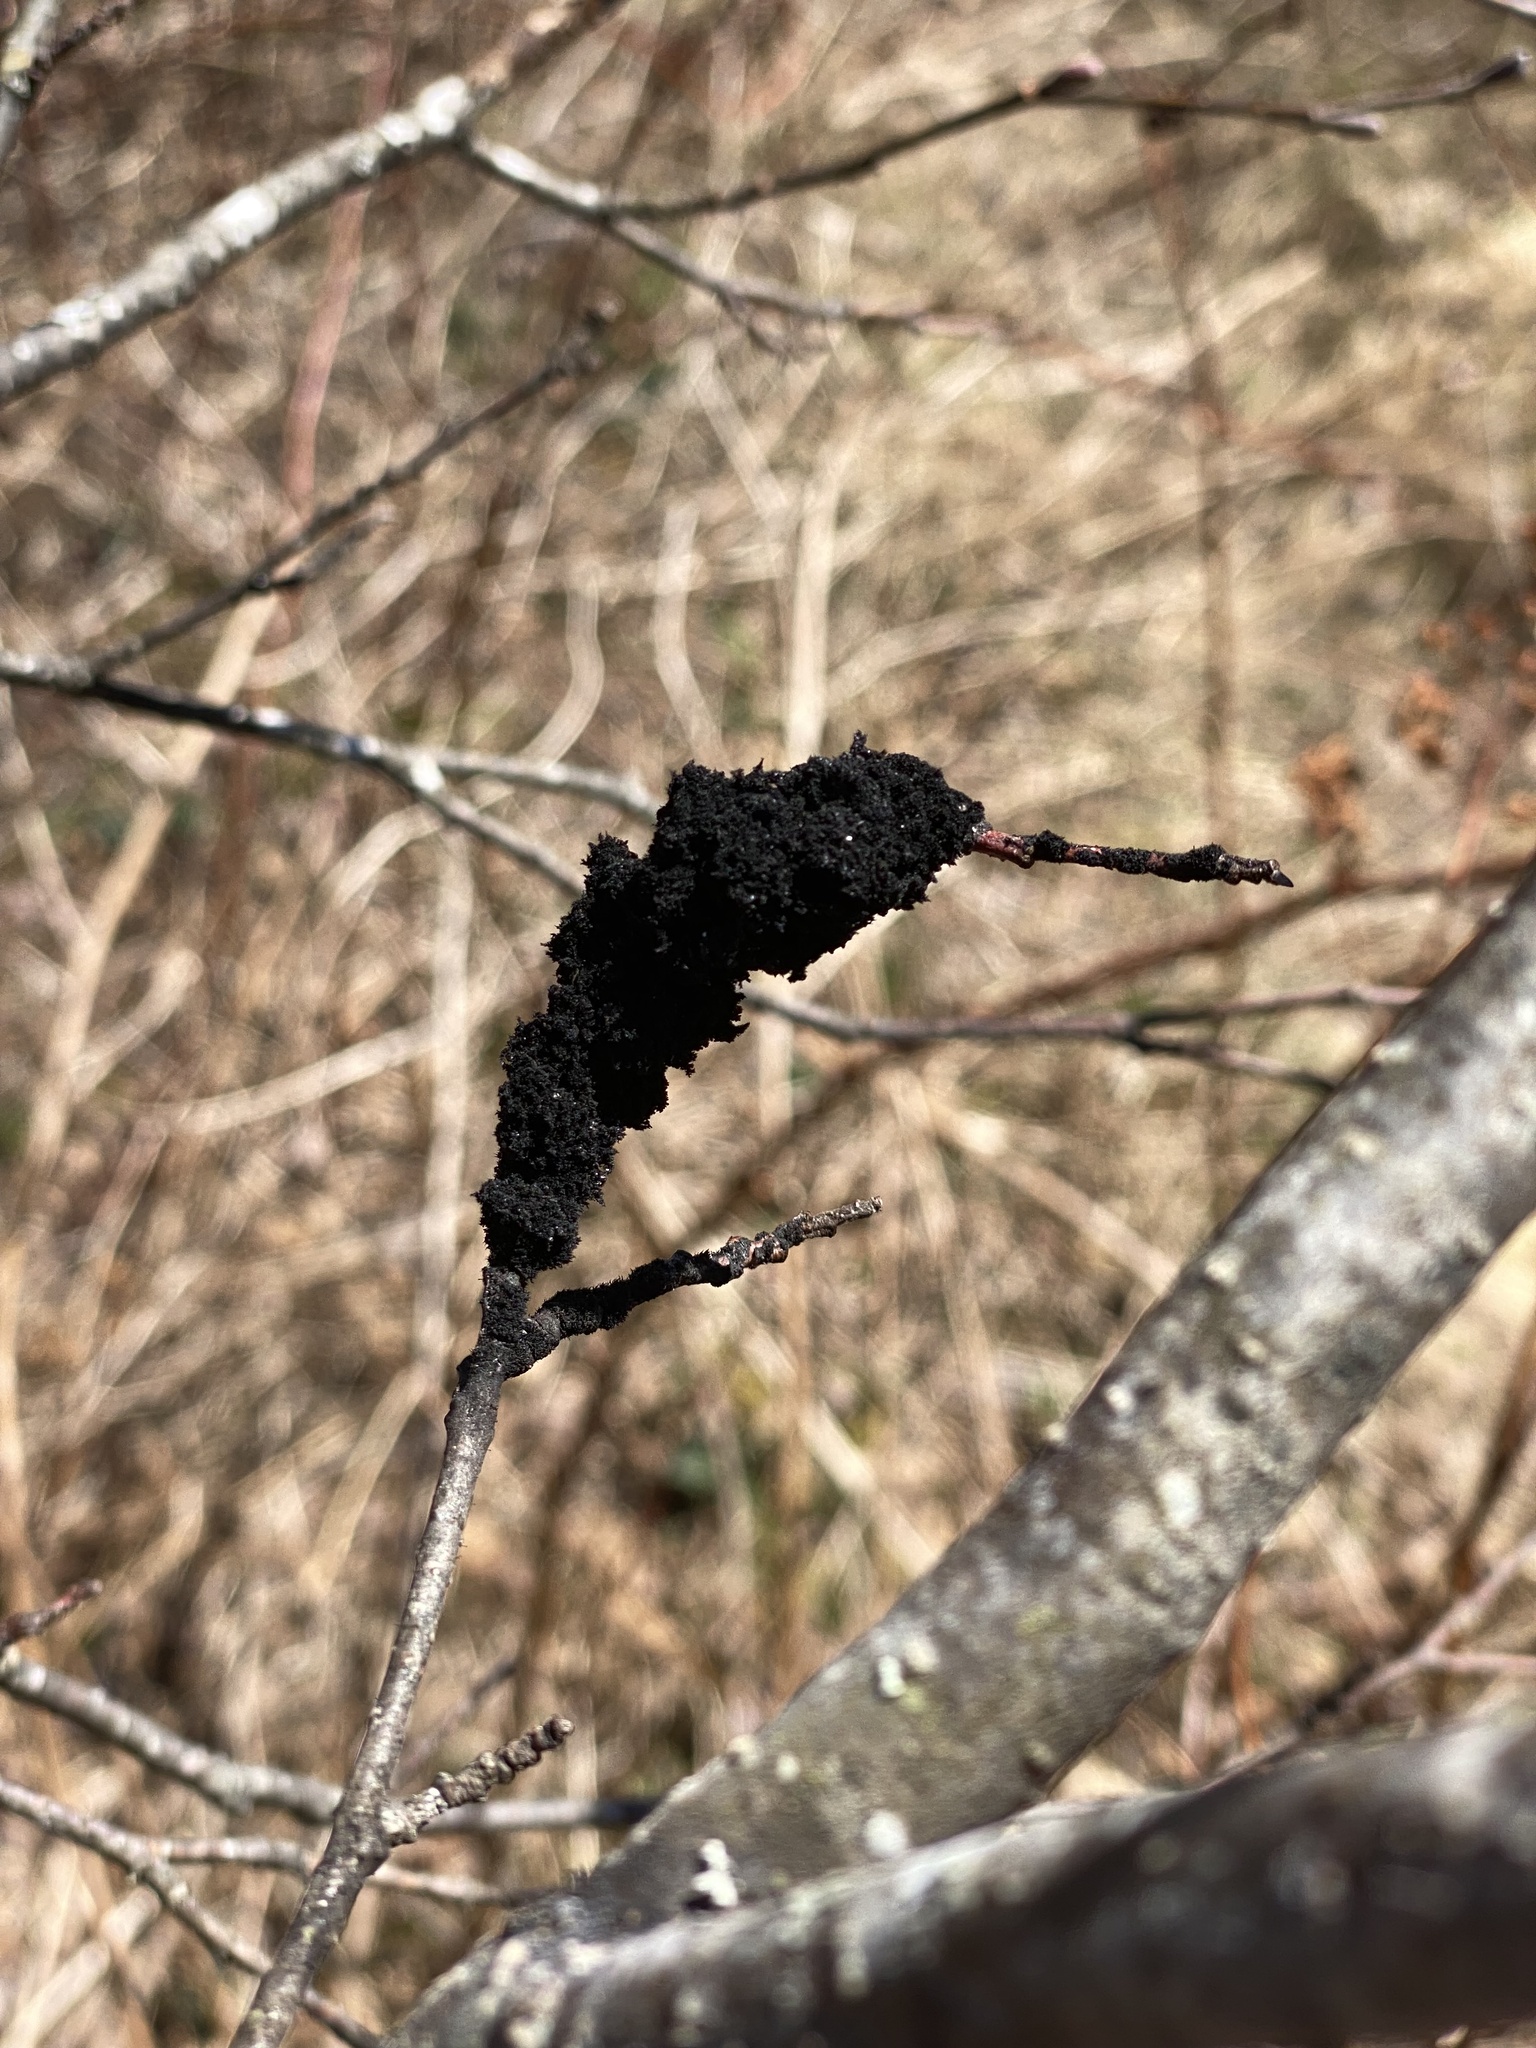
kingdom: Fungi
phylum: Ascomycota
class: Dothideomycetes
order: Venturiales
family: Venturiaceae
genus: Apiosporina
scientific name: Apiosporina morbosa
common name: Black knot
